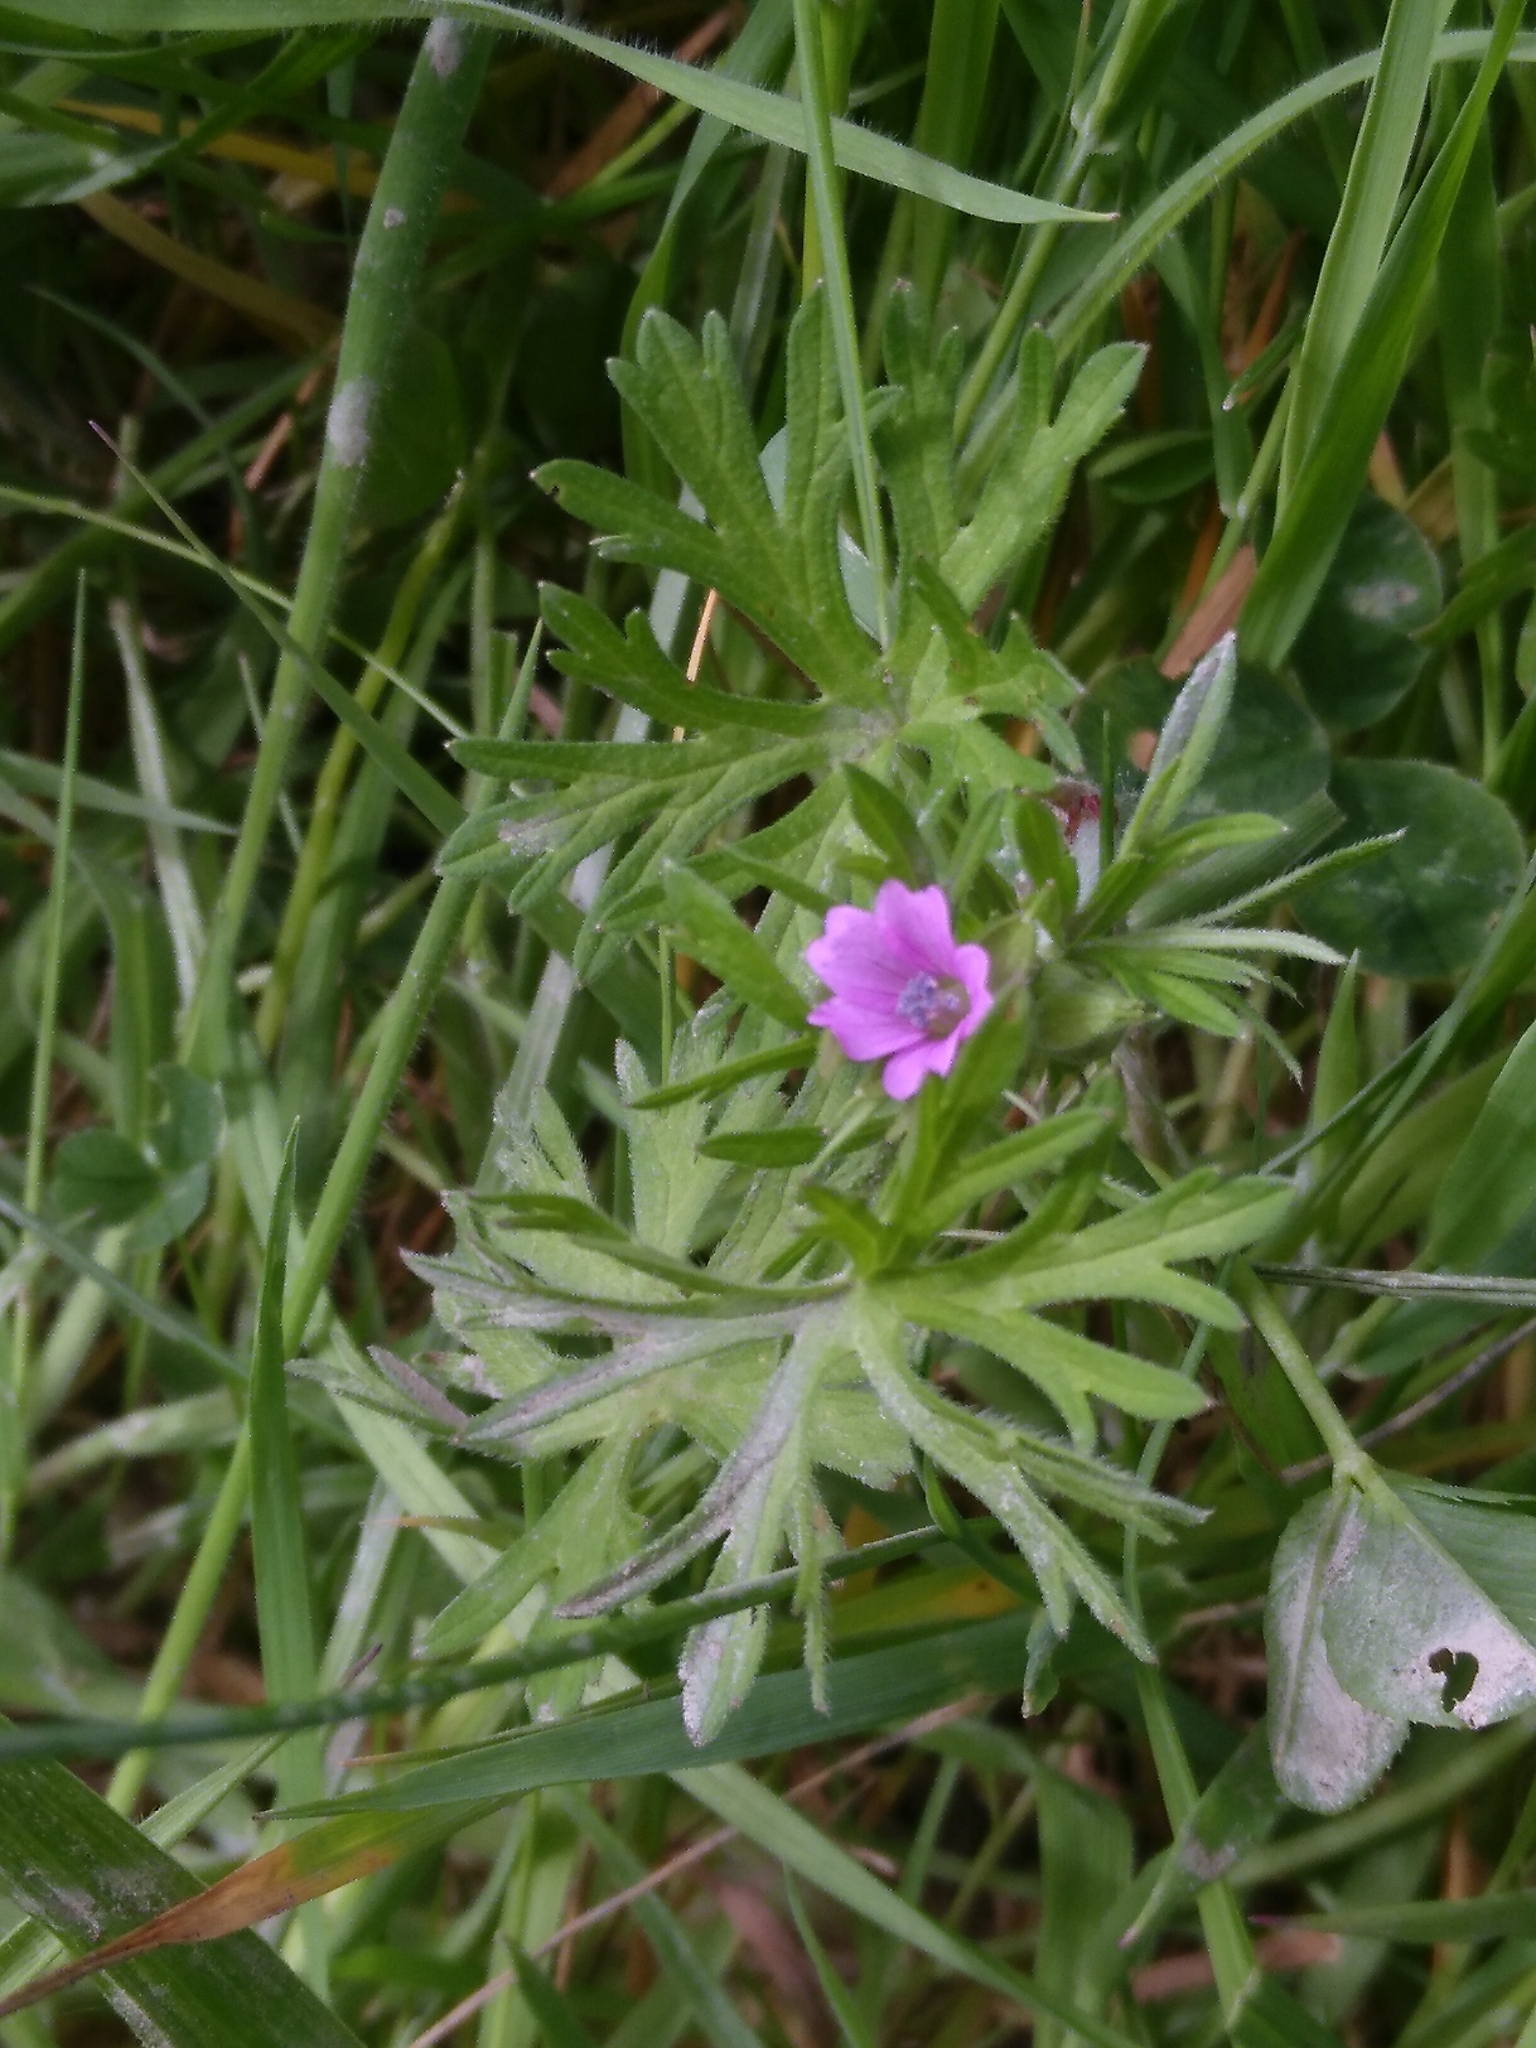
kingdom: Plantae
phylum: Tracheophyta
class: Magnoliopsida
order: Geraniales
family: Geraniaceae
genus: Geranium
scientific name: Geranium dissectum
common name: Cut-leaved crane's-bill
